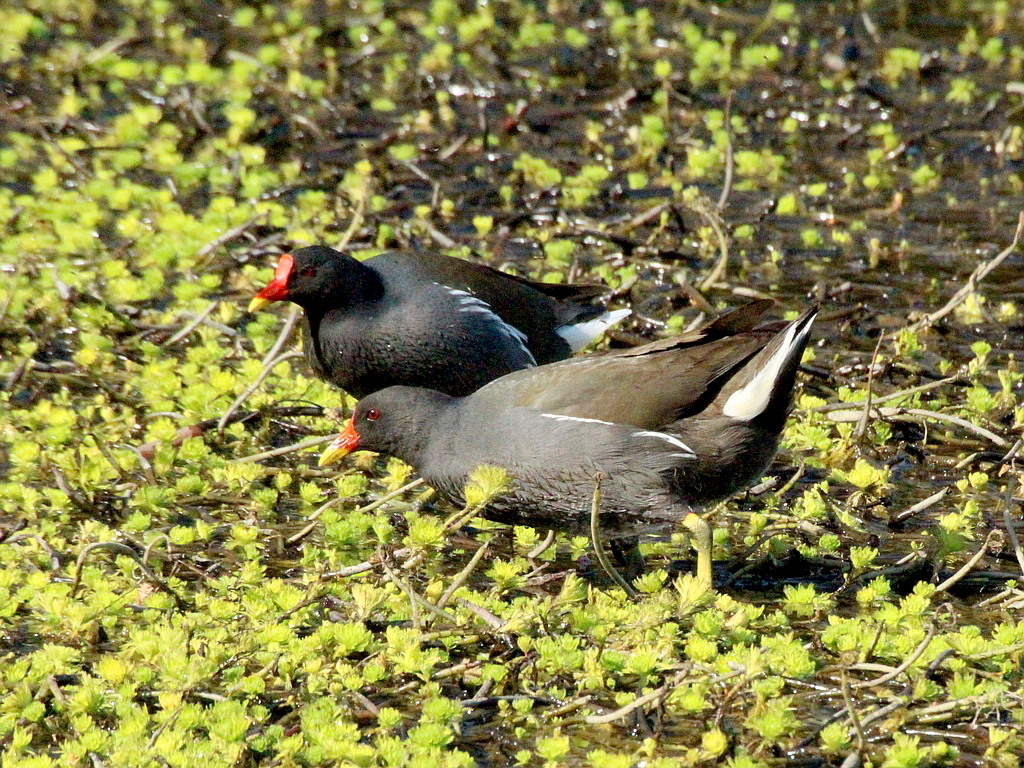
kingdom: Animalia
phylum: Chordata
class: Aves
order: Gruiformes
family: Rallidae
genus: Gallinula
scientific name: Gallinula chloropus
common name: Common moorhen
